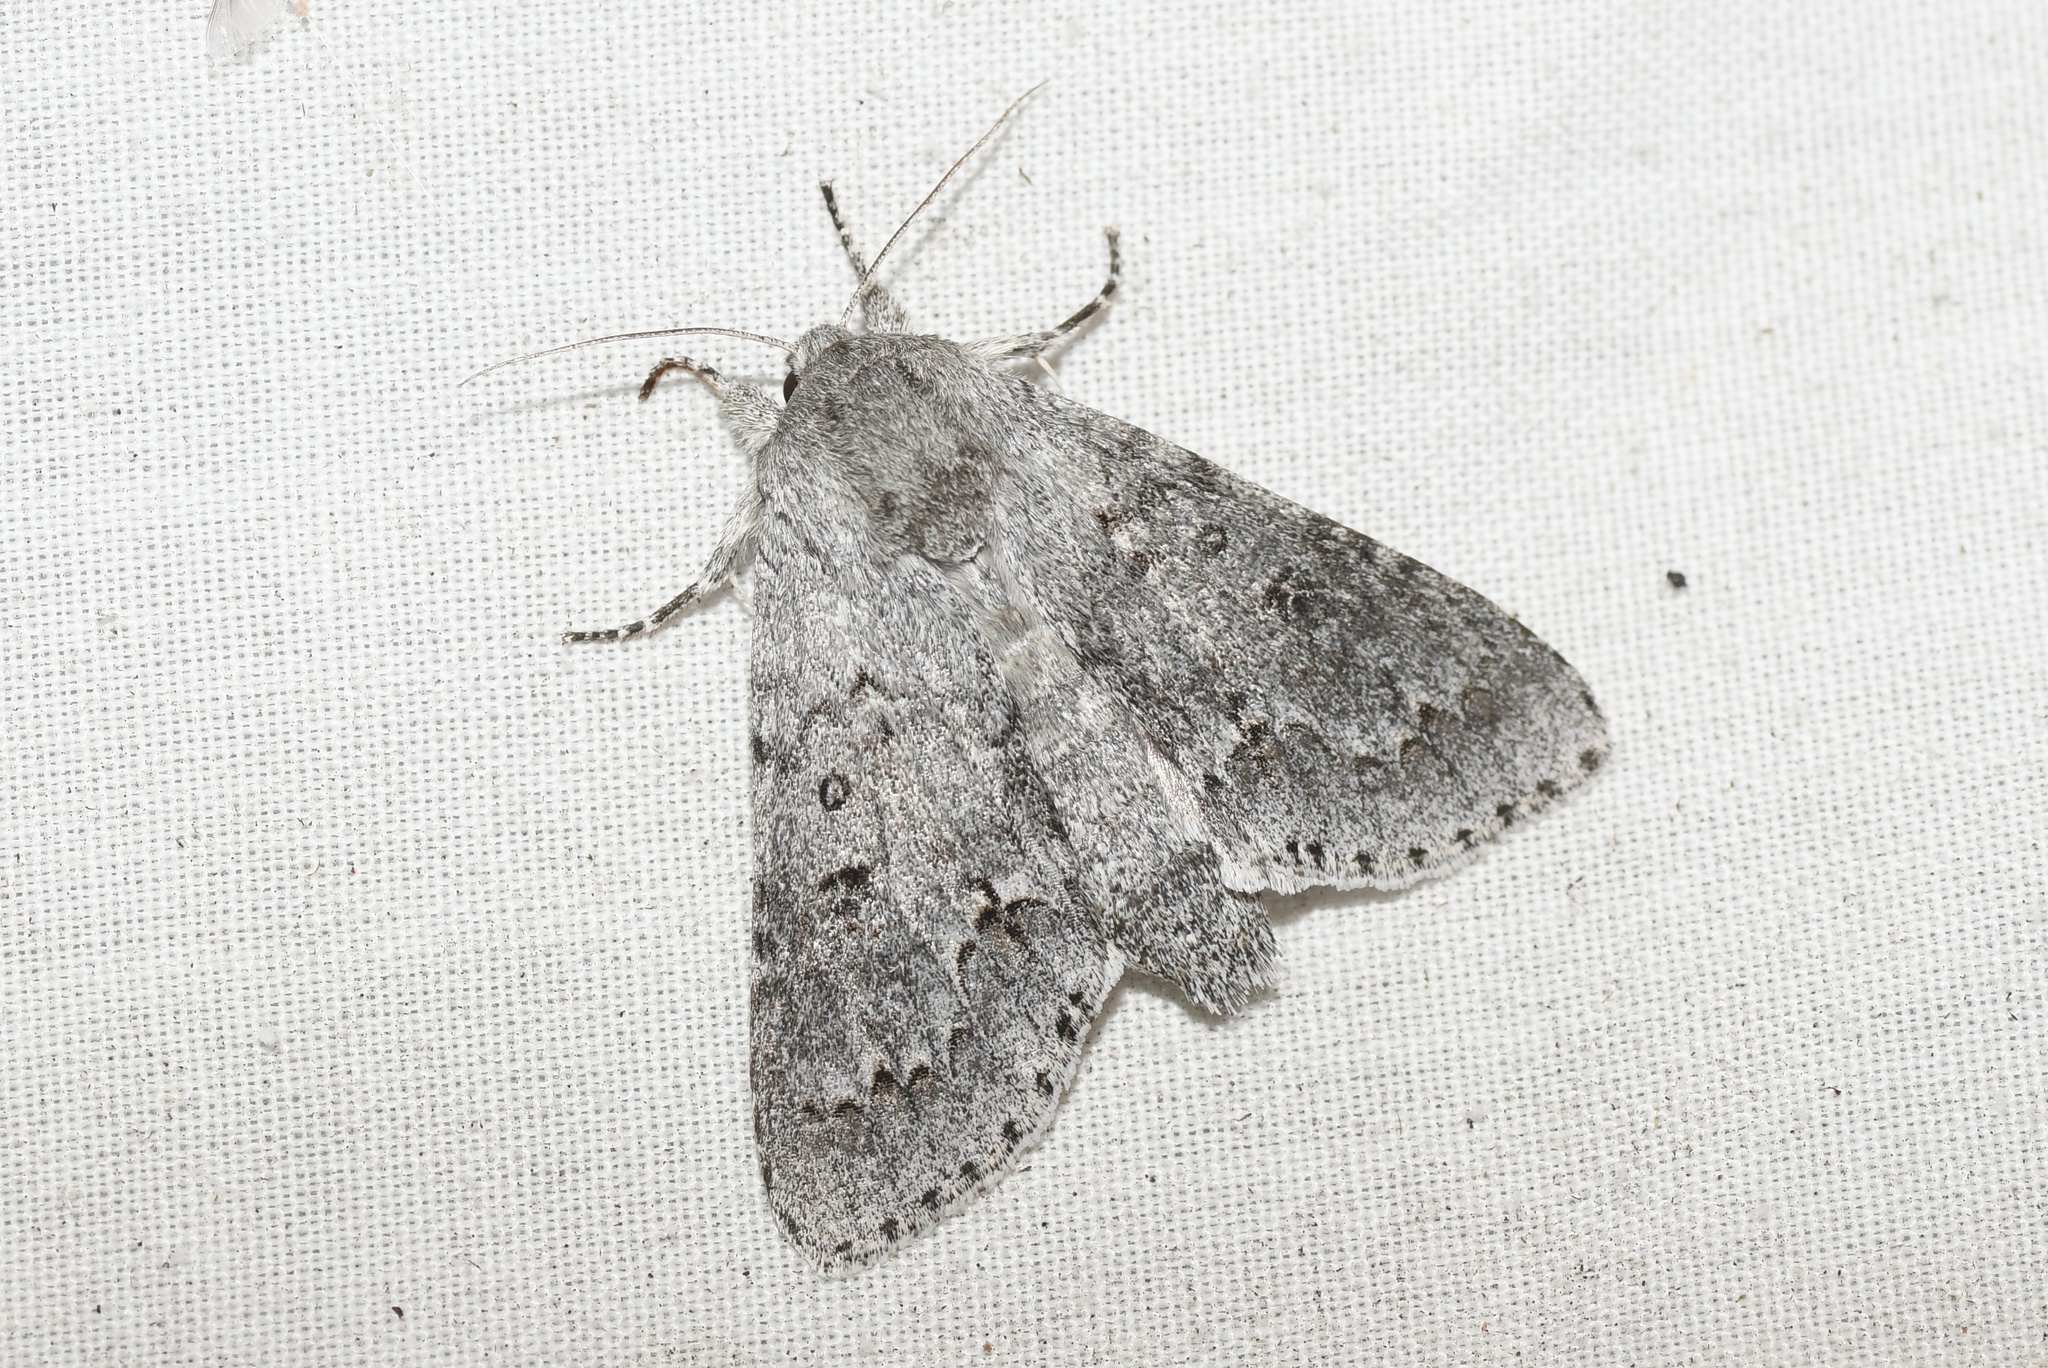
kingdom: Animalia
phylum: Arthropoda
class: Insecta
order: Lepidoptera
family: Noctuidae
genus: Acronicta
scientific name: Acronicta insita
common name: Large gray dagger
